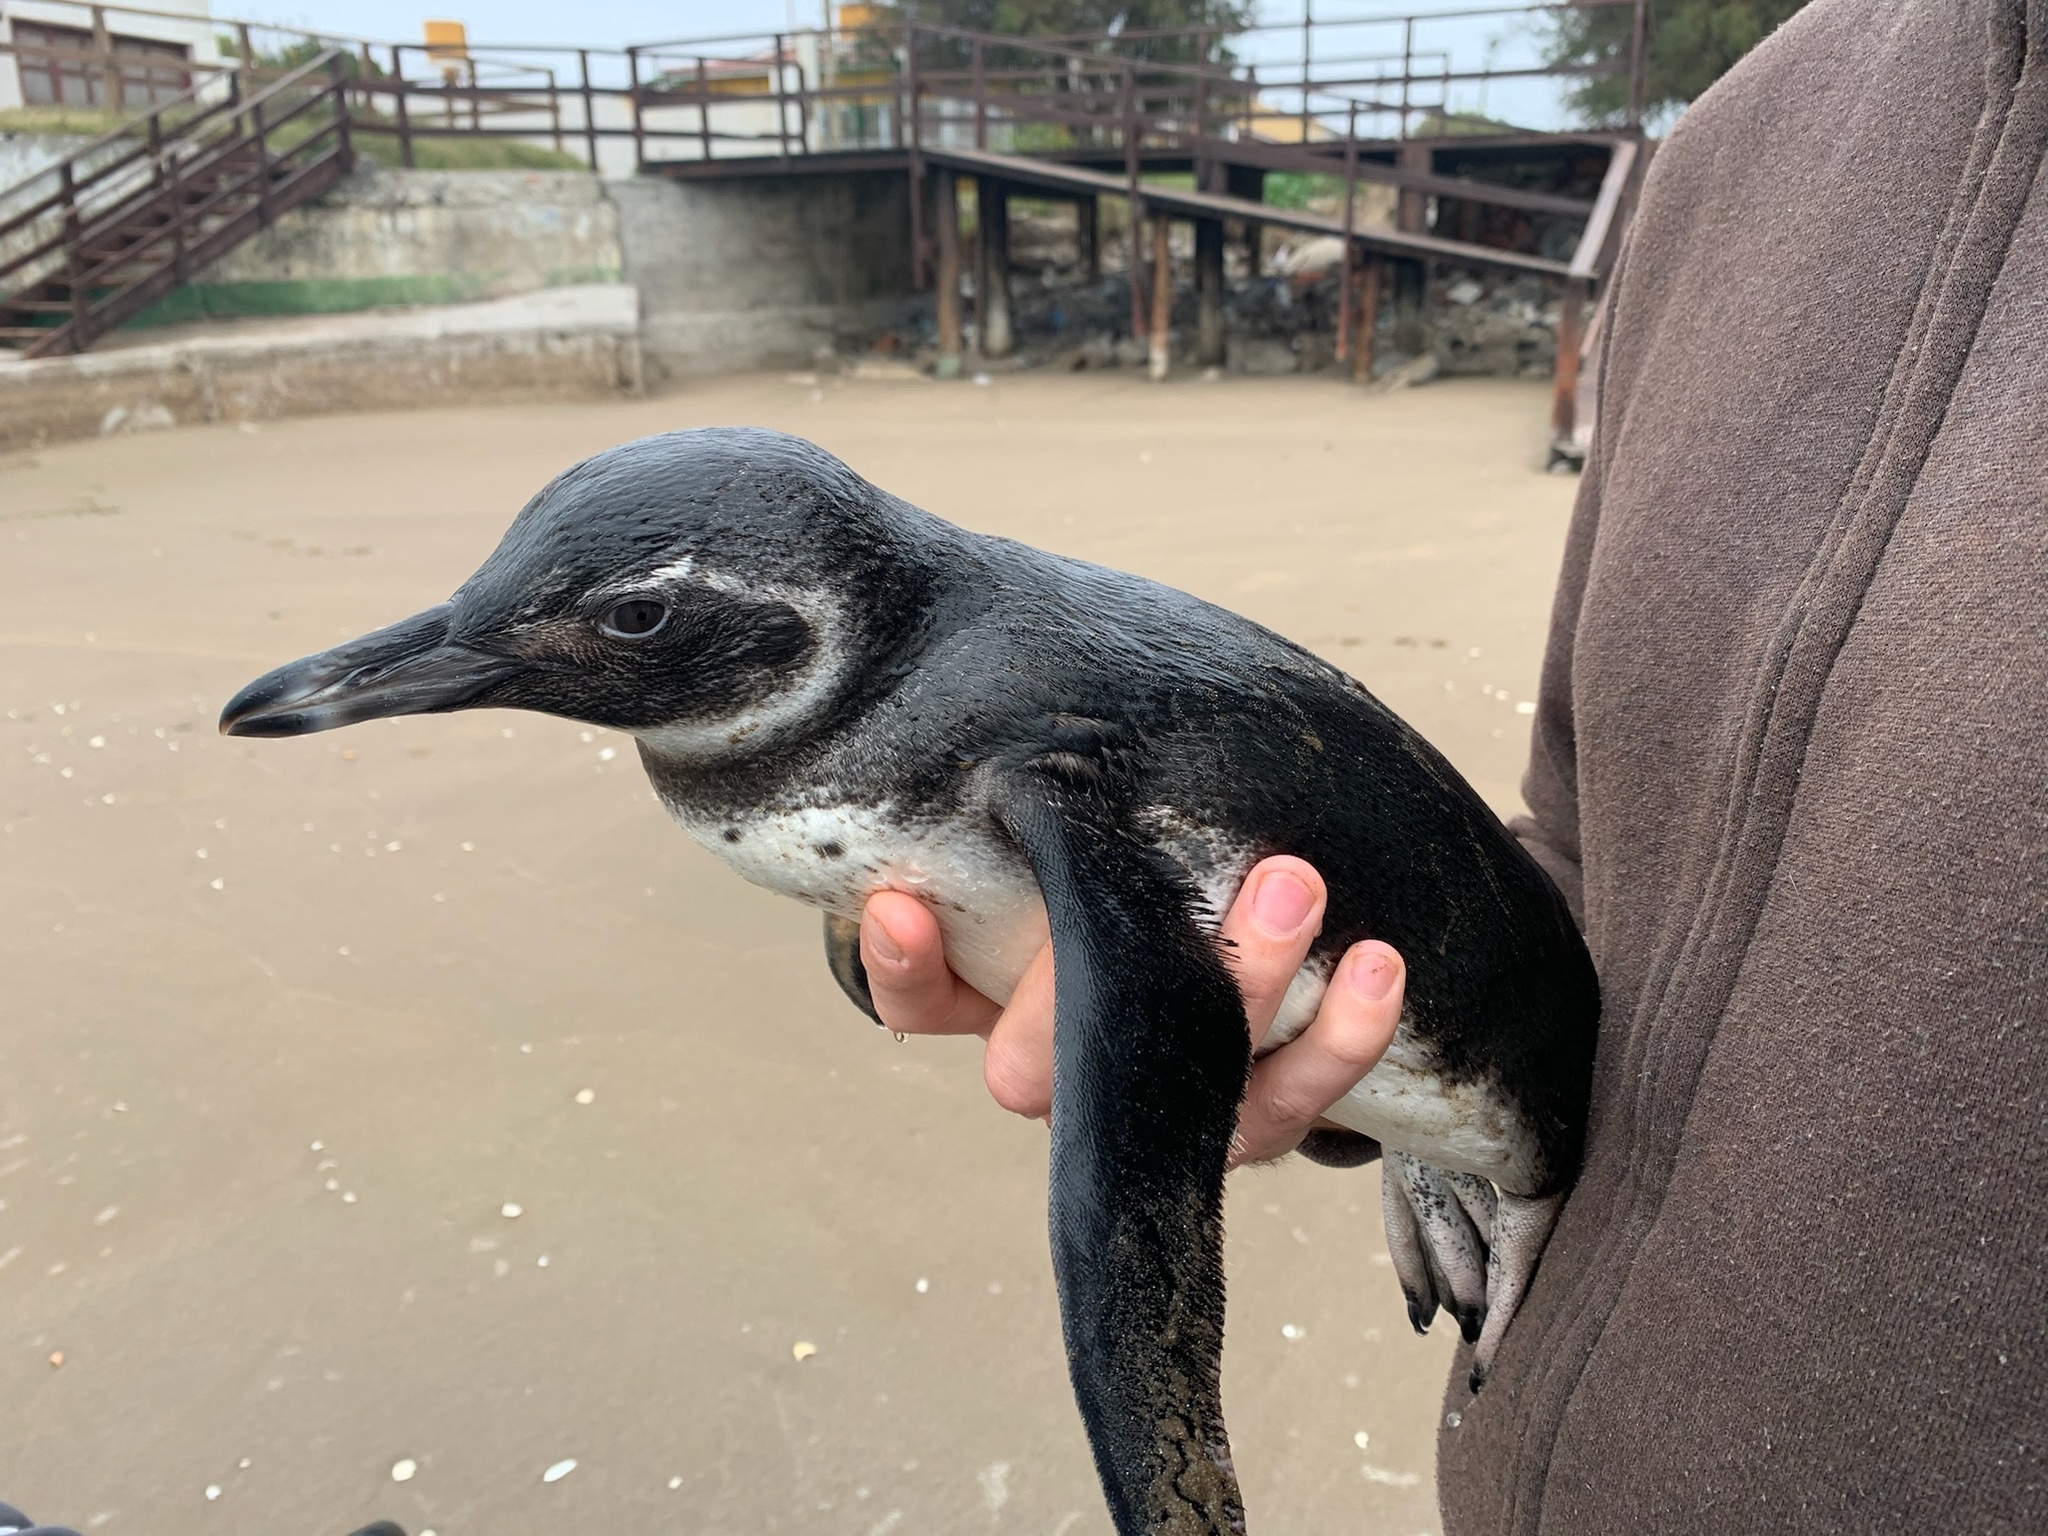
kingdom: Animalia
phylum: Chordata
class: Aves
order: Sphenisciformes
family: Spheniscidae
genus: Spheniscus
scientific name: Spheniscus magellanicus
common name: Magellanic penguin
